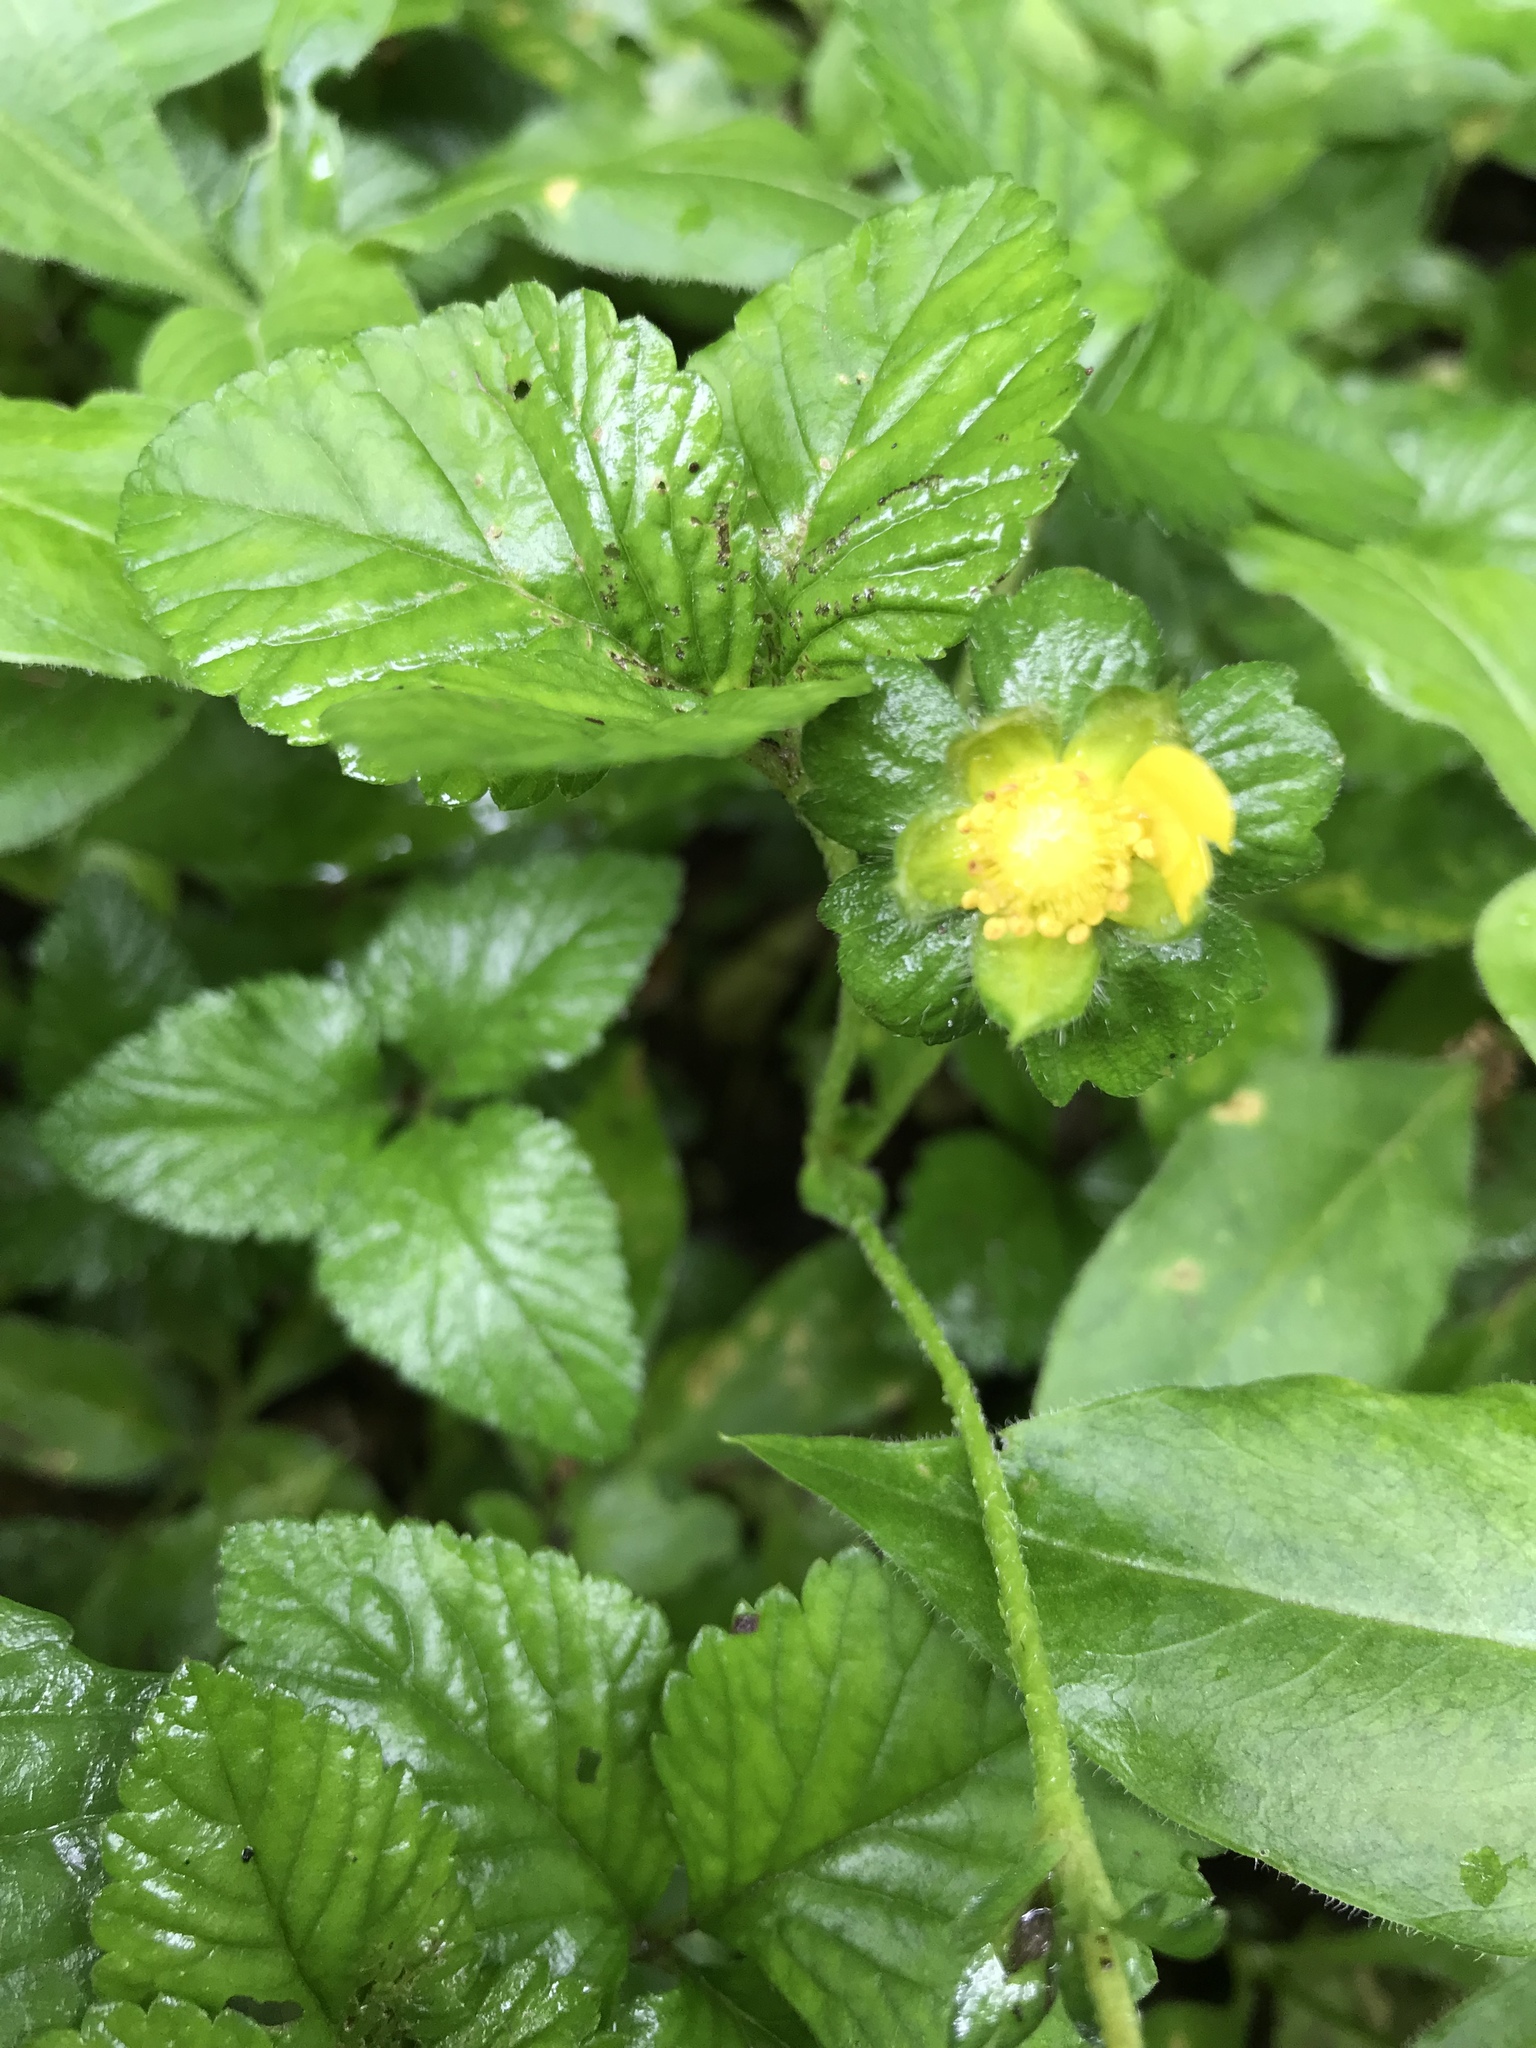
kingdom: Plantae
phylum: Tracheophyta
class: Magnoliopsida
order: Rosales
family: Rosaceae
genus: Potentilla
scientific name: Potentilla indica
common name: Yellow-flowered strawberry
